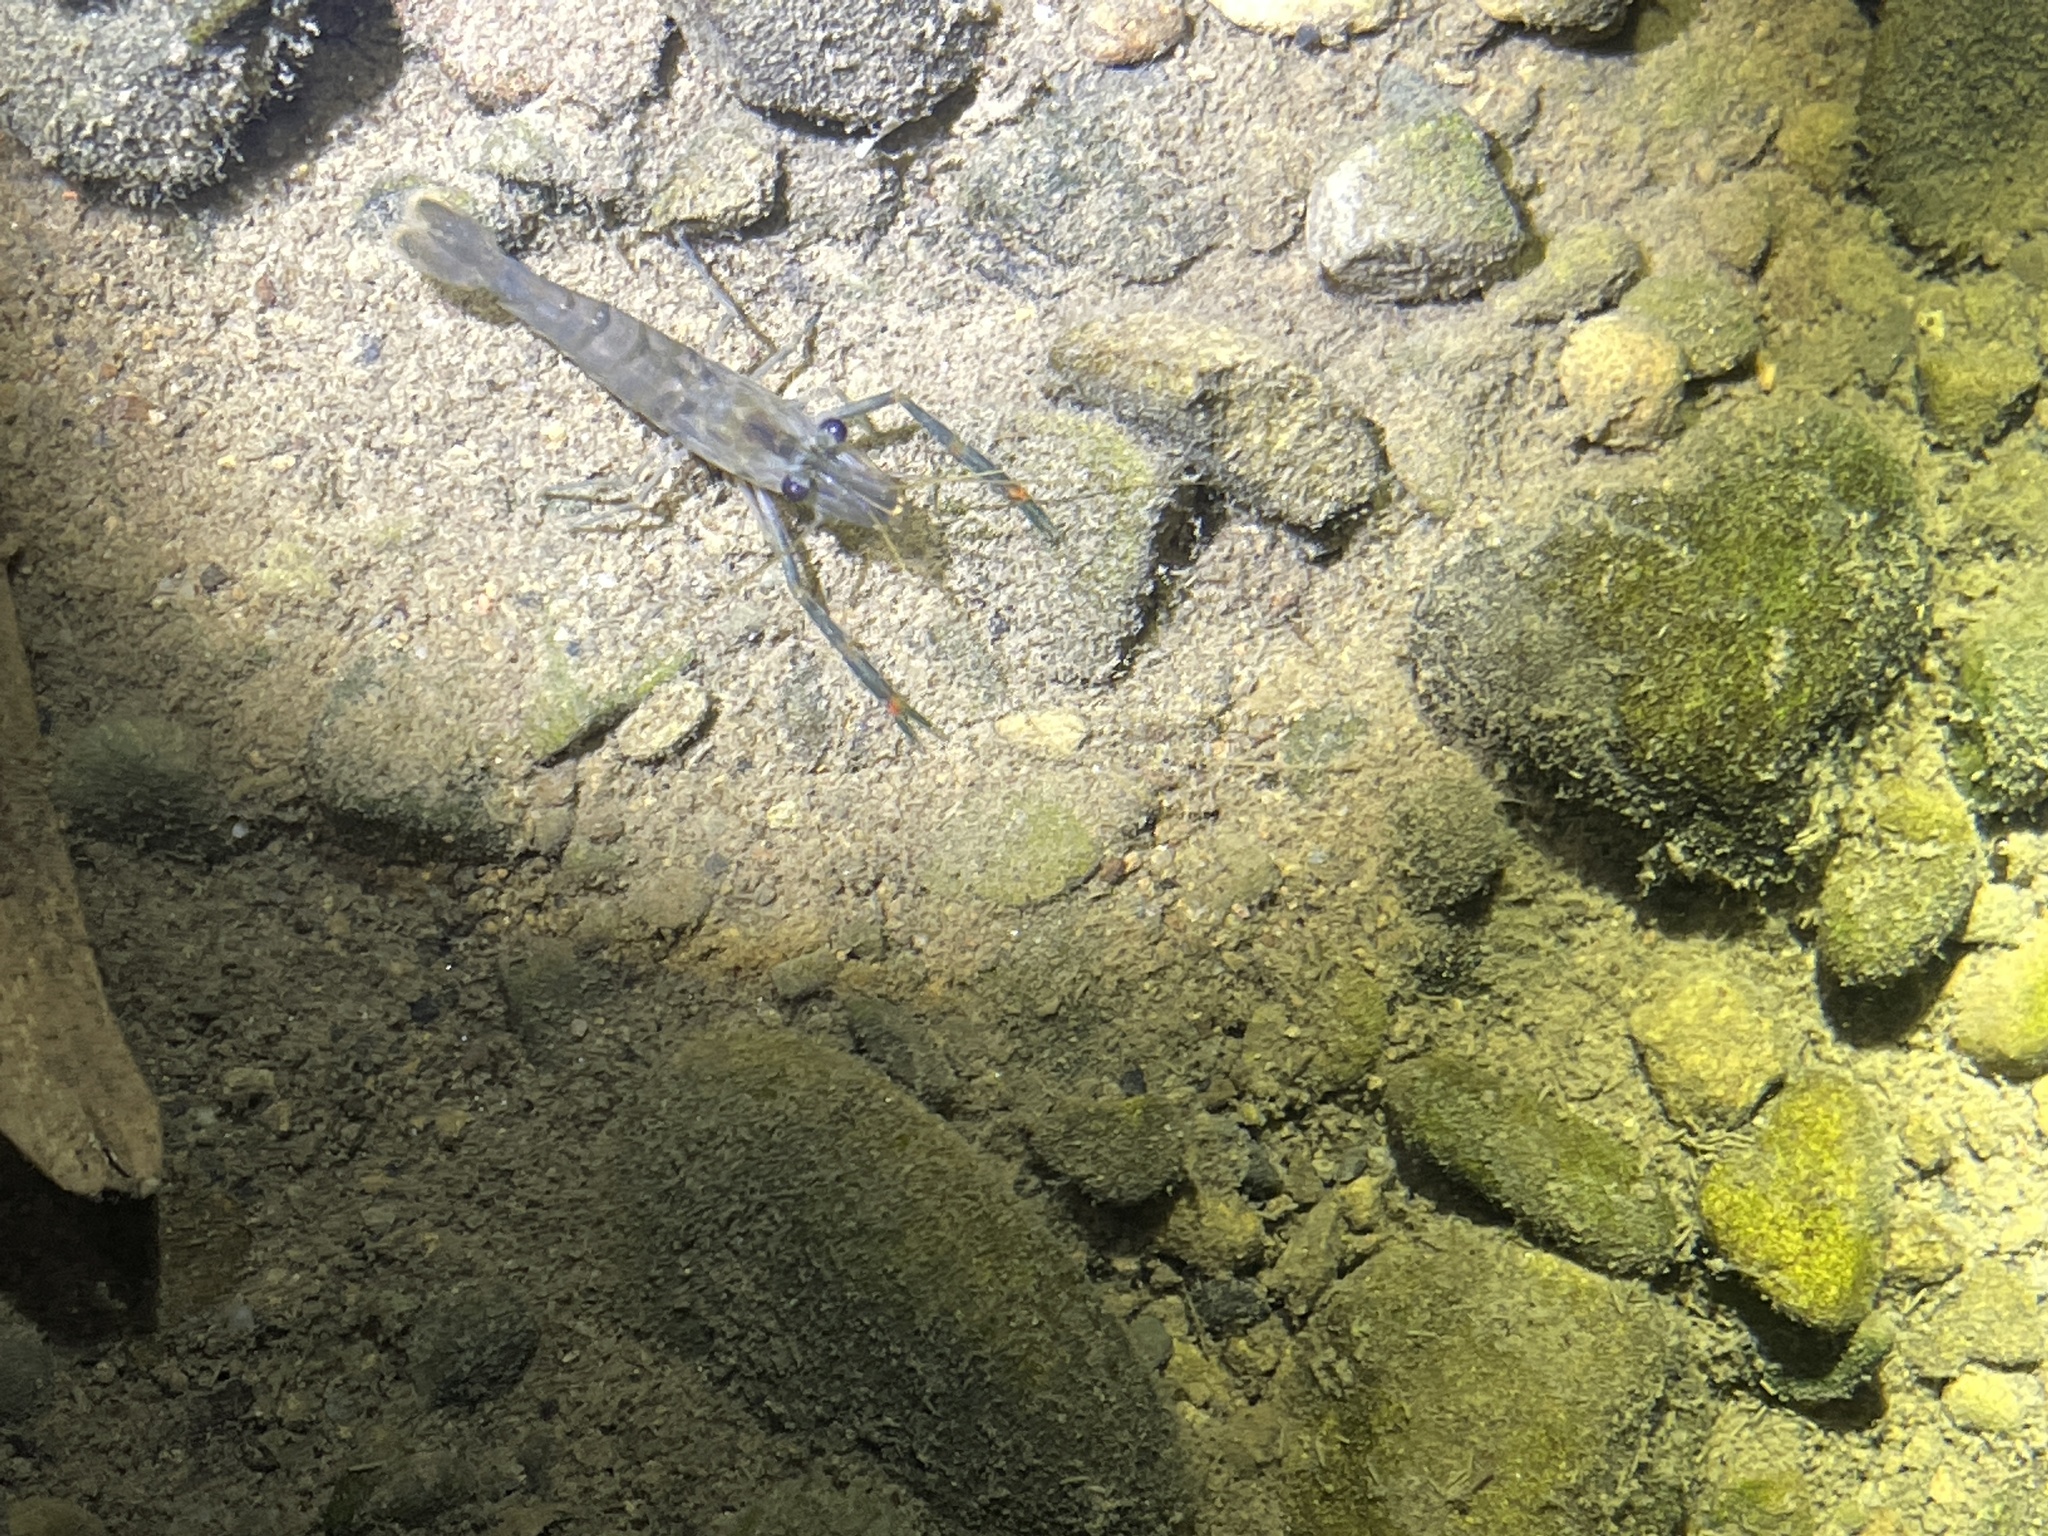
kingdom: Animalia
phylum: Arthropoda
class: Malacostraca
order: Decapoda
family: Palaemonidae
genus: Macrobrachium
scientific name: Macrobrachium asperulum
